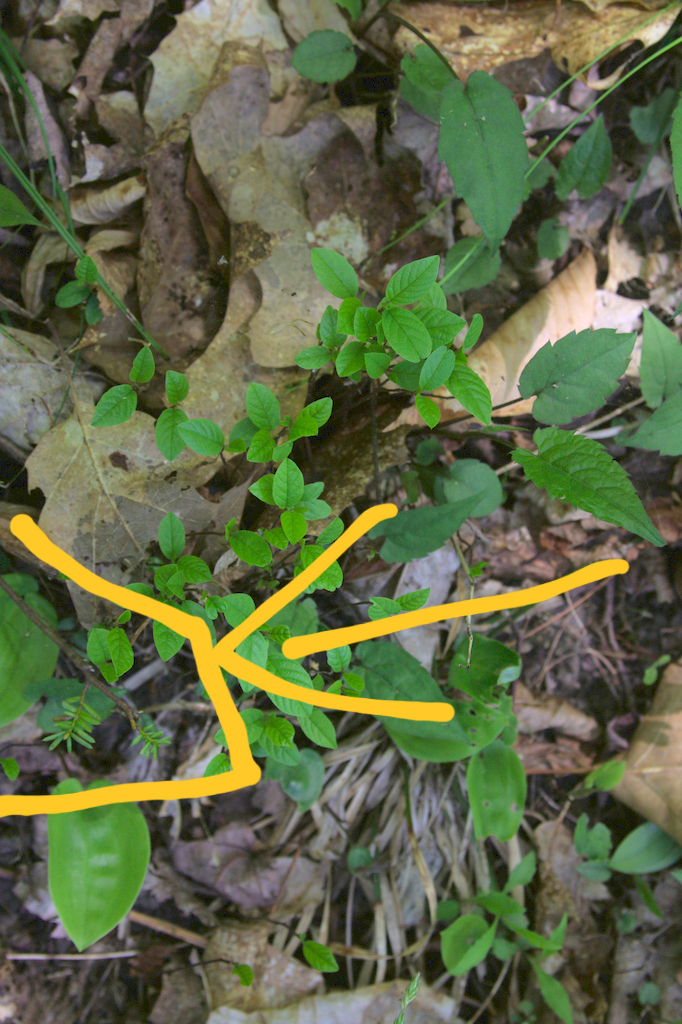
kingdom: Plantae
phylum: Tracheophyta
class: Pinopsida
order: Pinales
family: Pinaceae
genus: Tsuga
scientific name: Tsuga canadensis
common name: Eastern hemlock
